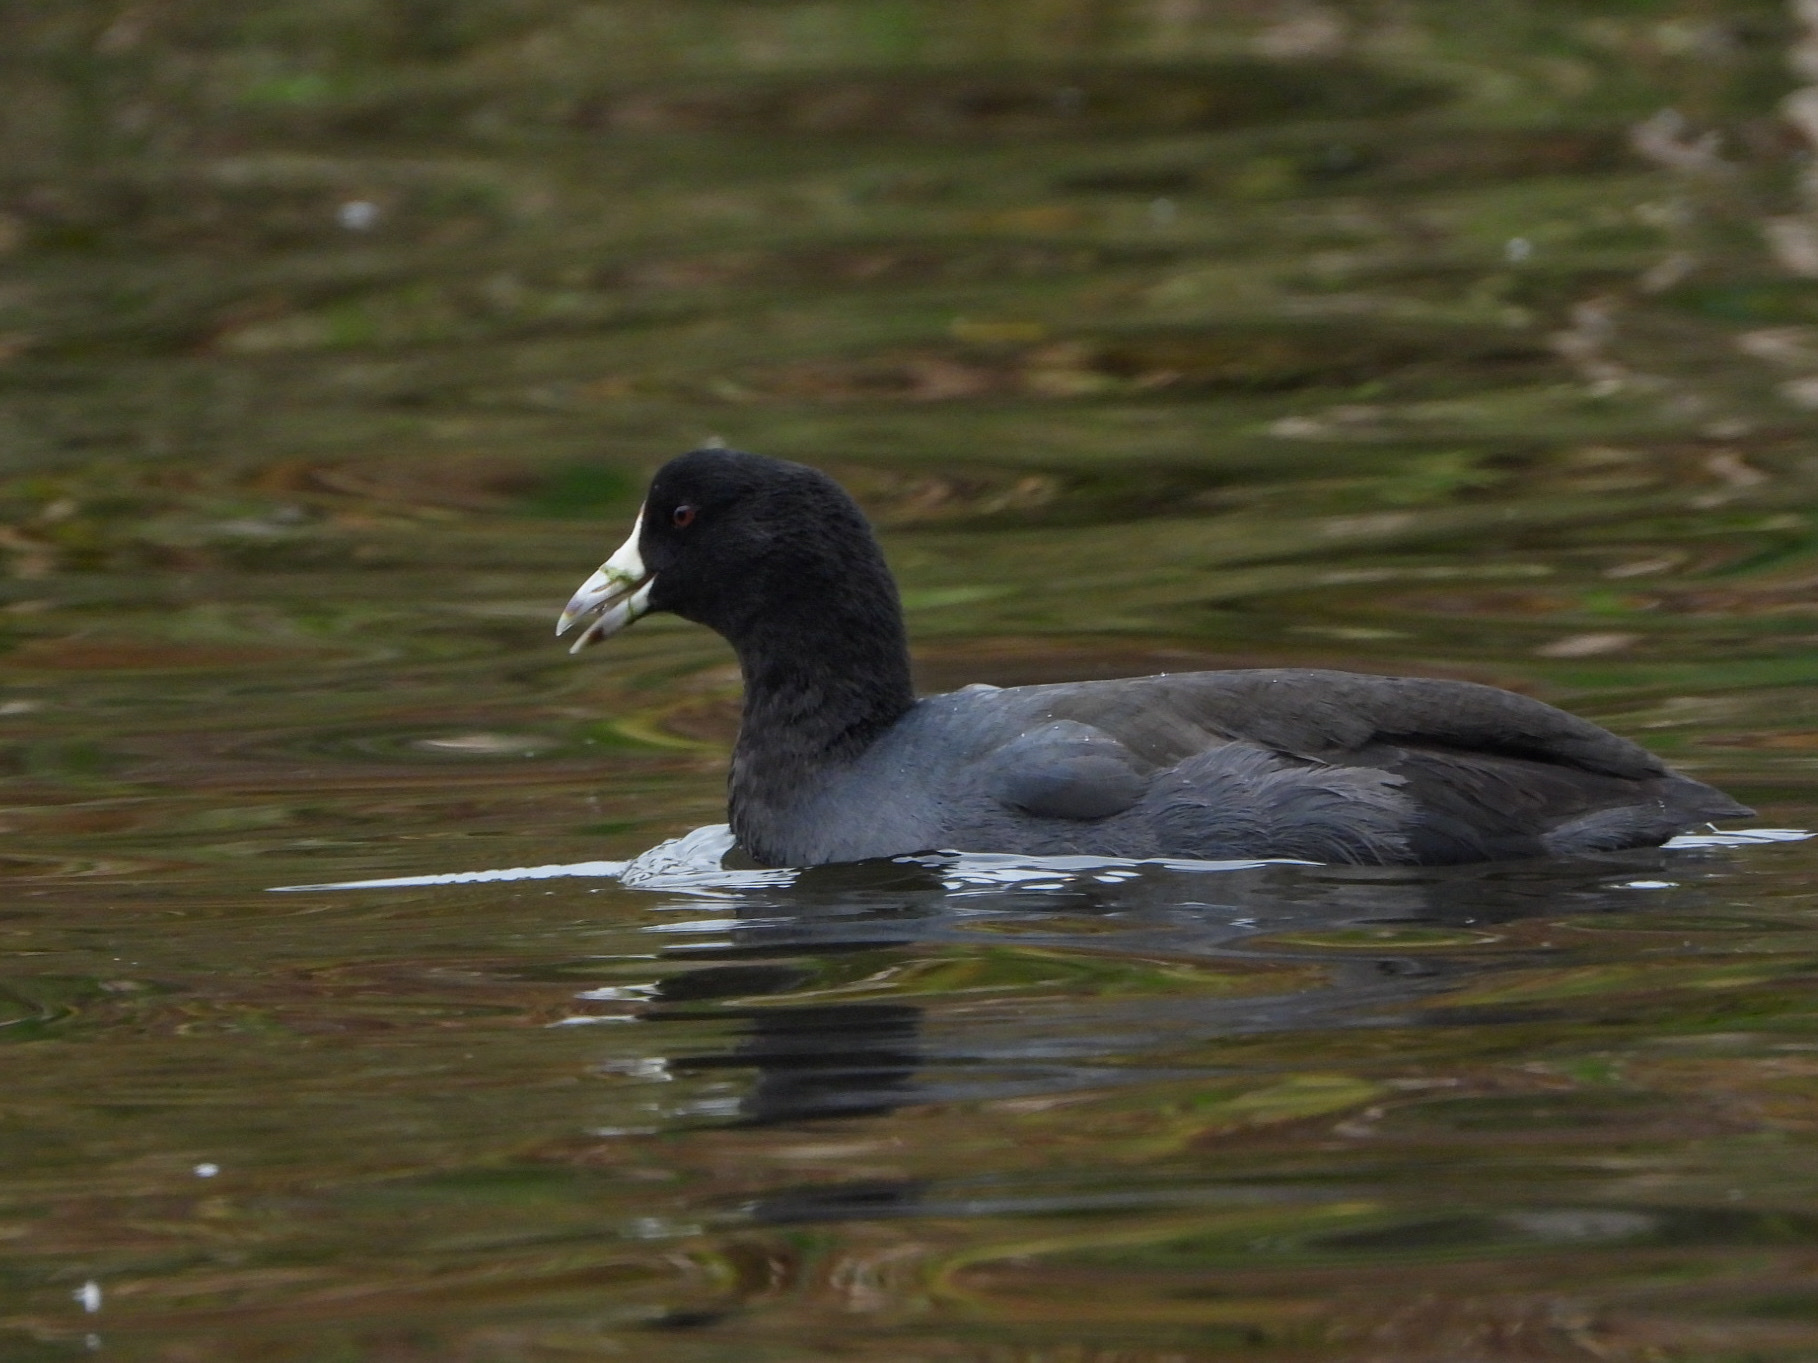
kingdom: Animalia
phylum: Chordata
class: Aves
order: Gruiformes
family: Rallidae
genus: Fulica
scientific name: Fulica americana
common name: American coot
